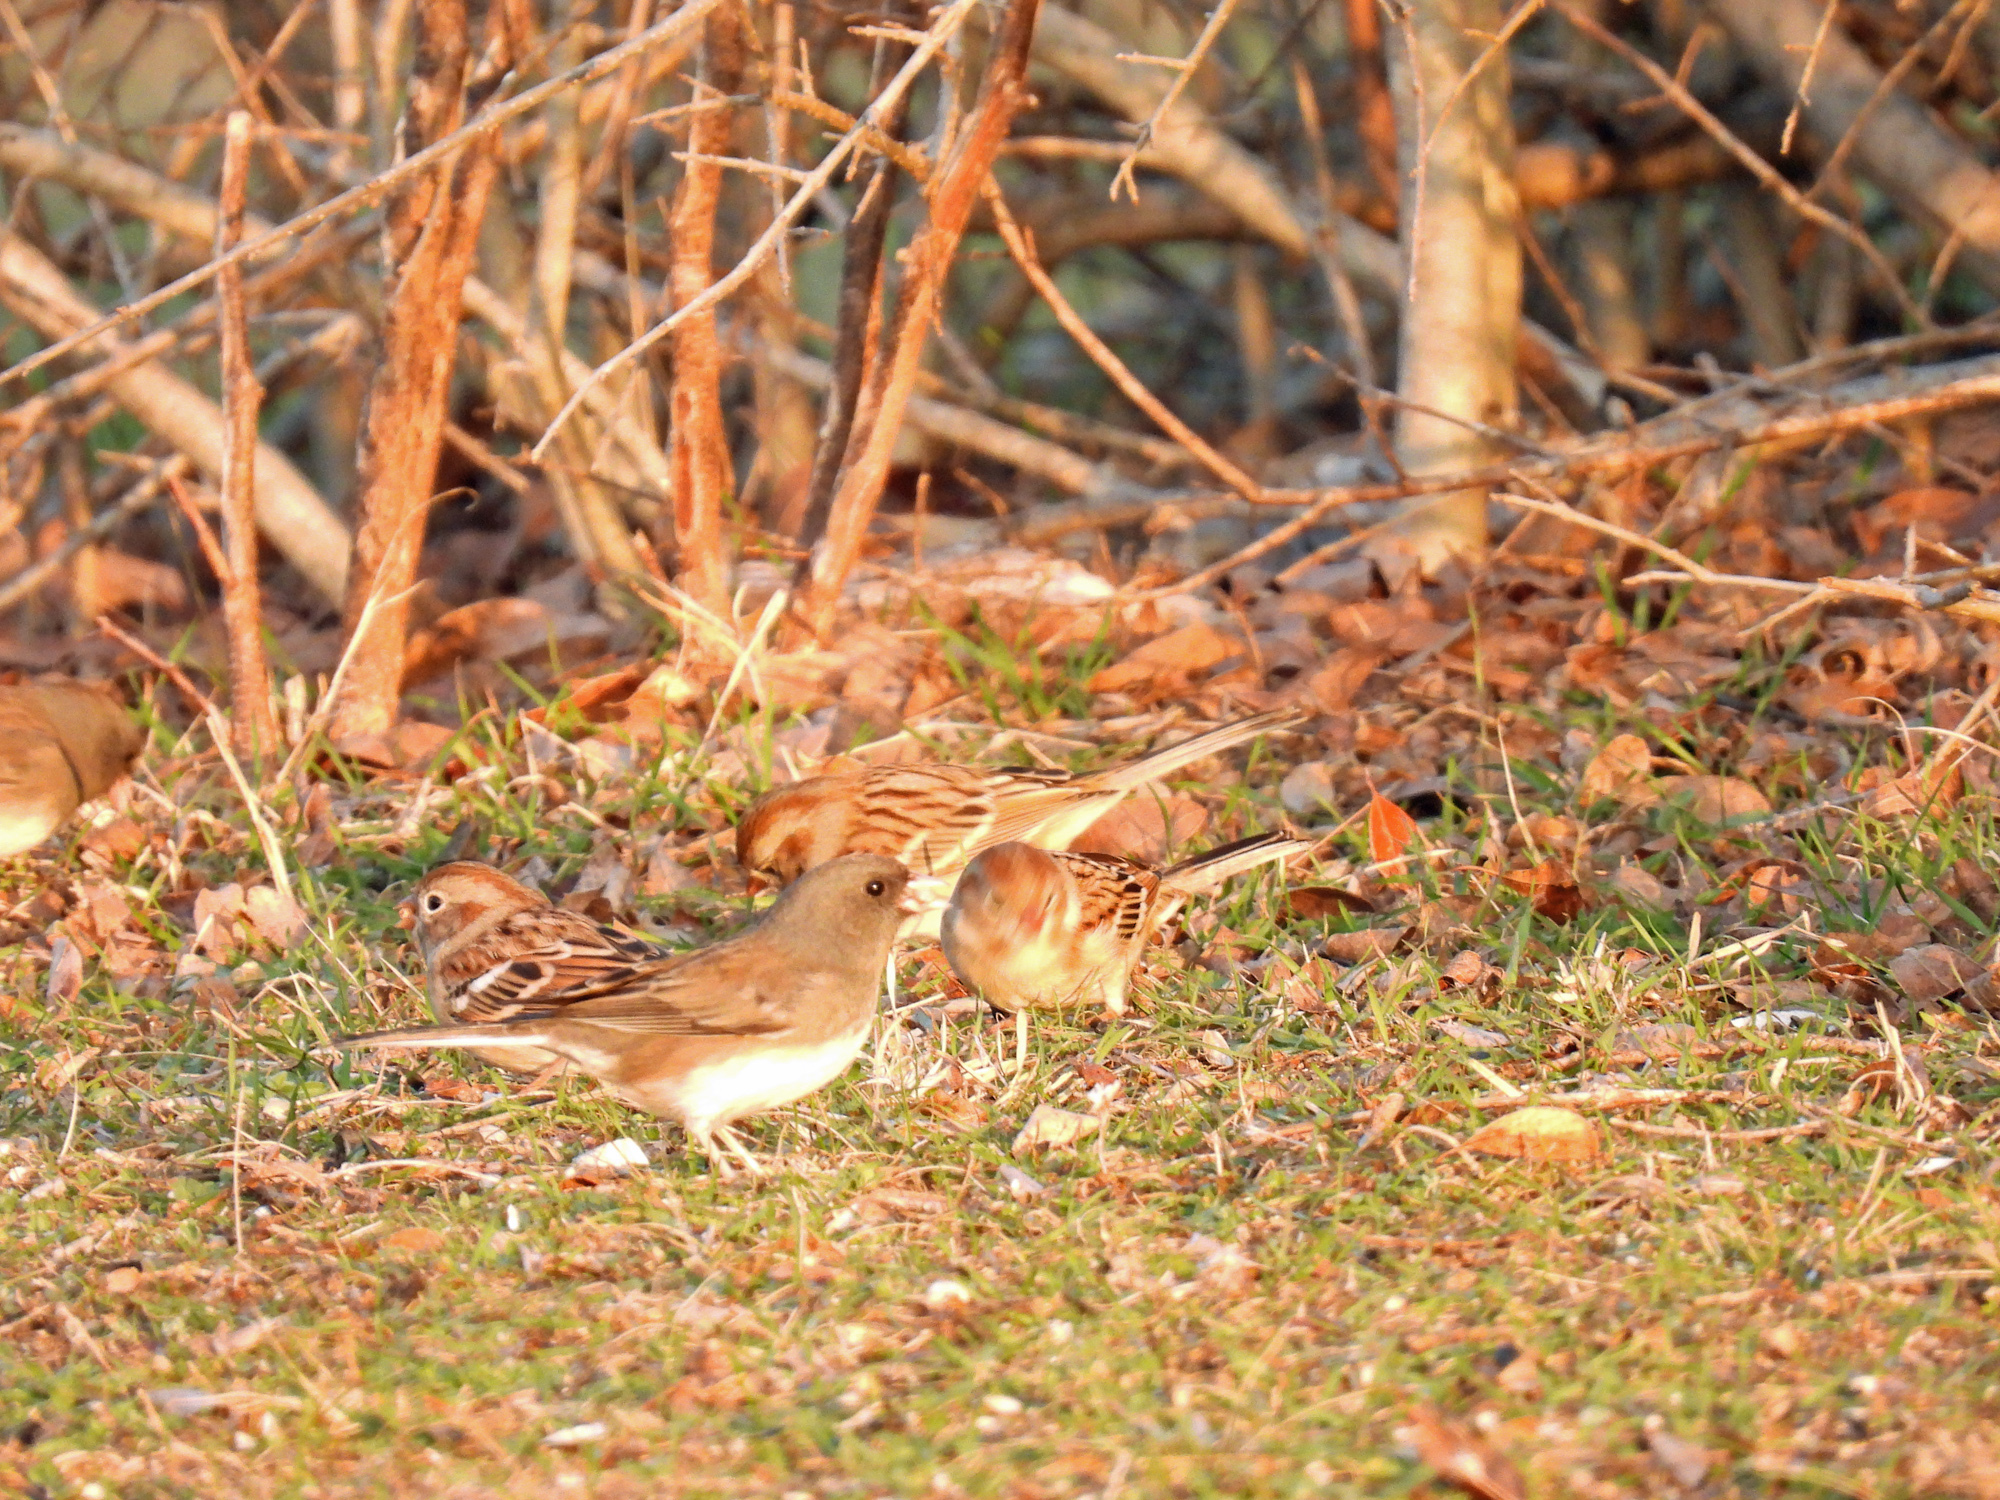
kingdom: Animalia
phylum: Chordata
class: Aves
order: Passeriformes
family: Passerellidae
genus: Spizella
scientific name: Spizella pusilla
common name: Field sparrow
